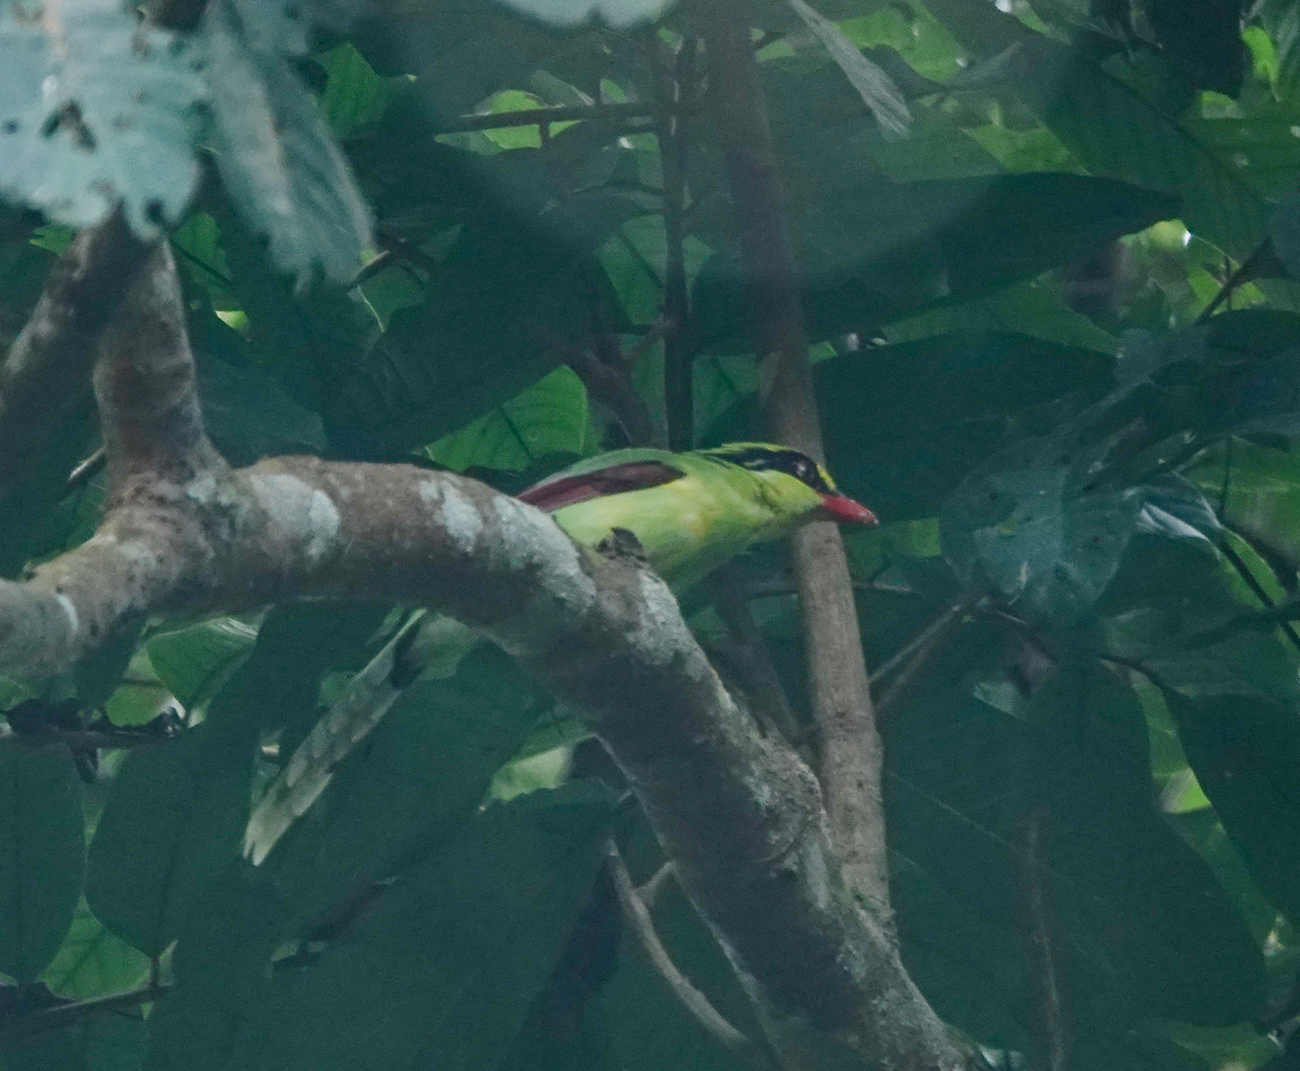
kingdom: Animalia
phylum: Chordata
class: Aves
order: Passeriformes
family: Corvidae
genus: Cissa
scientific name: Cissa chinensis
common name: Common green magpie
